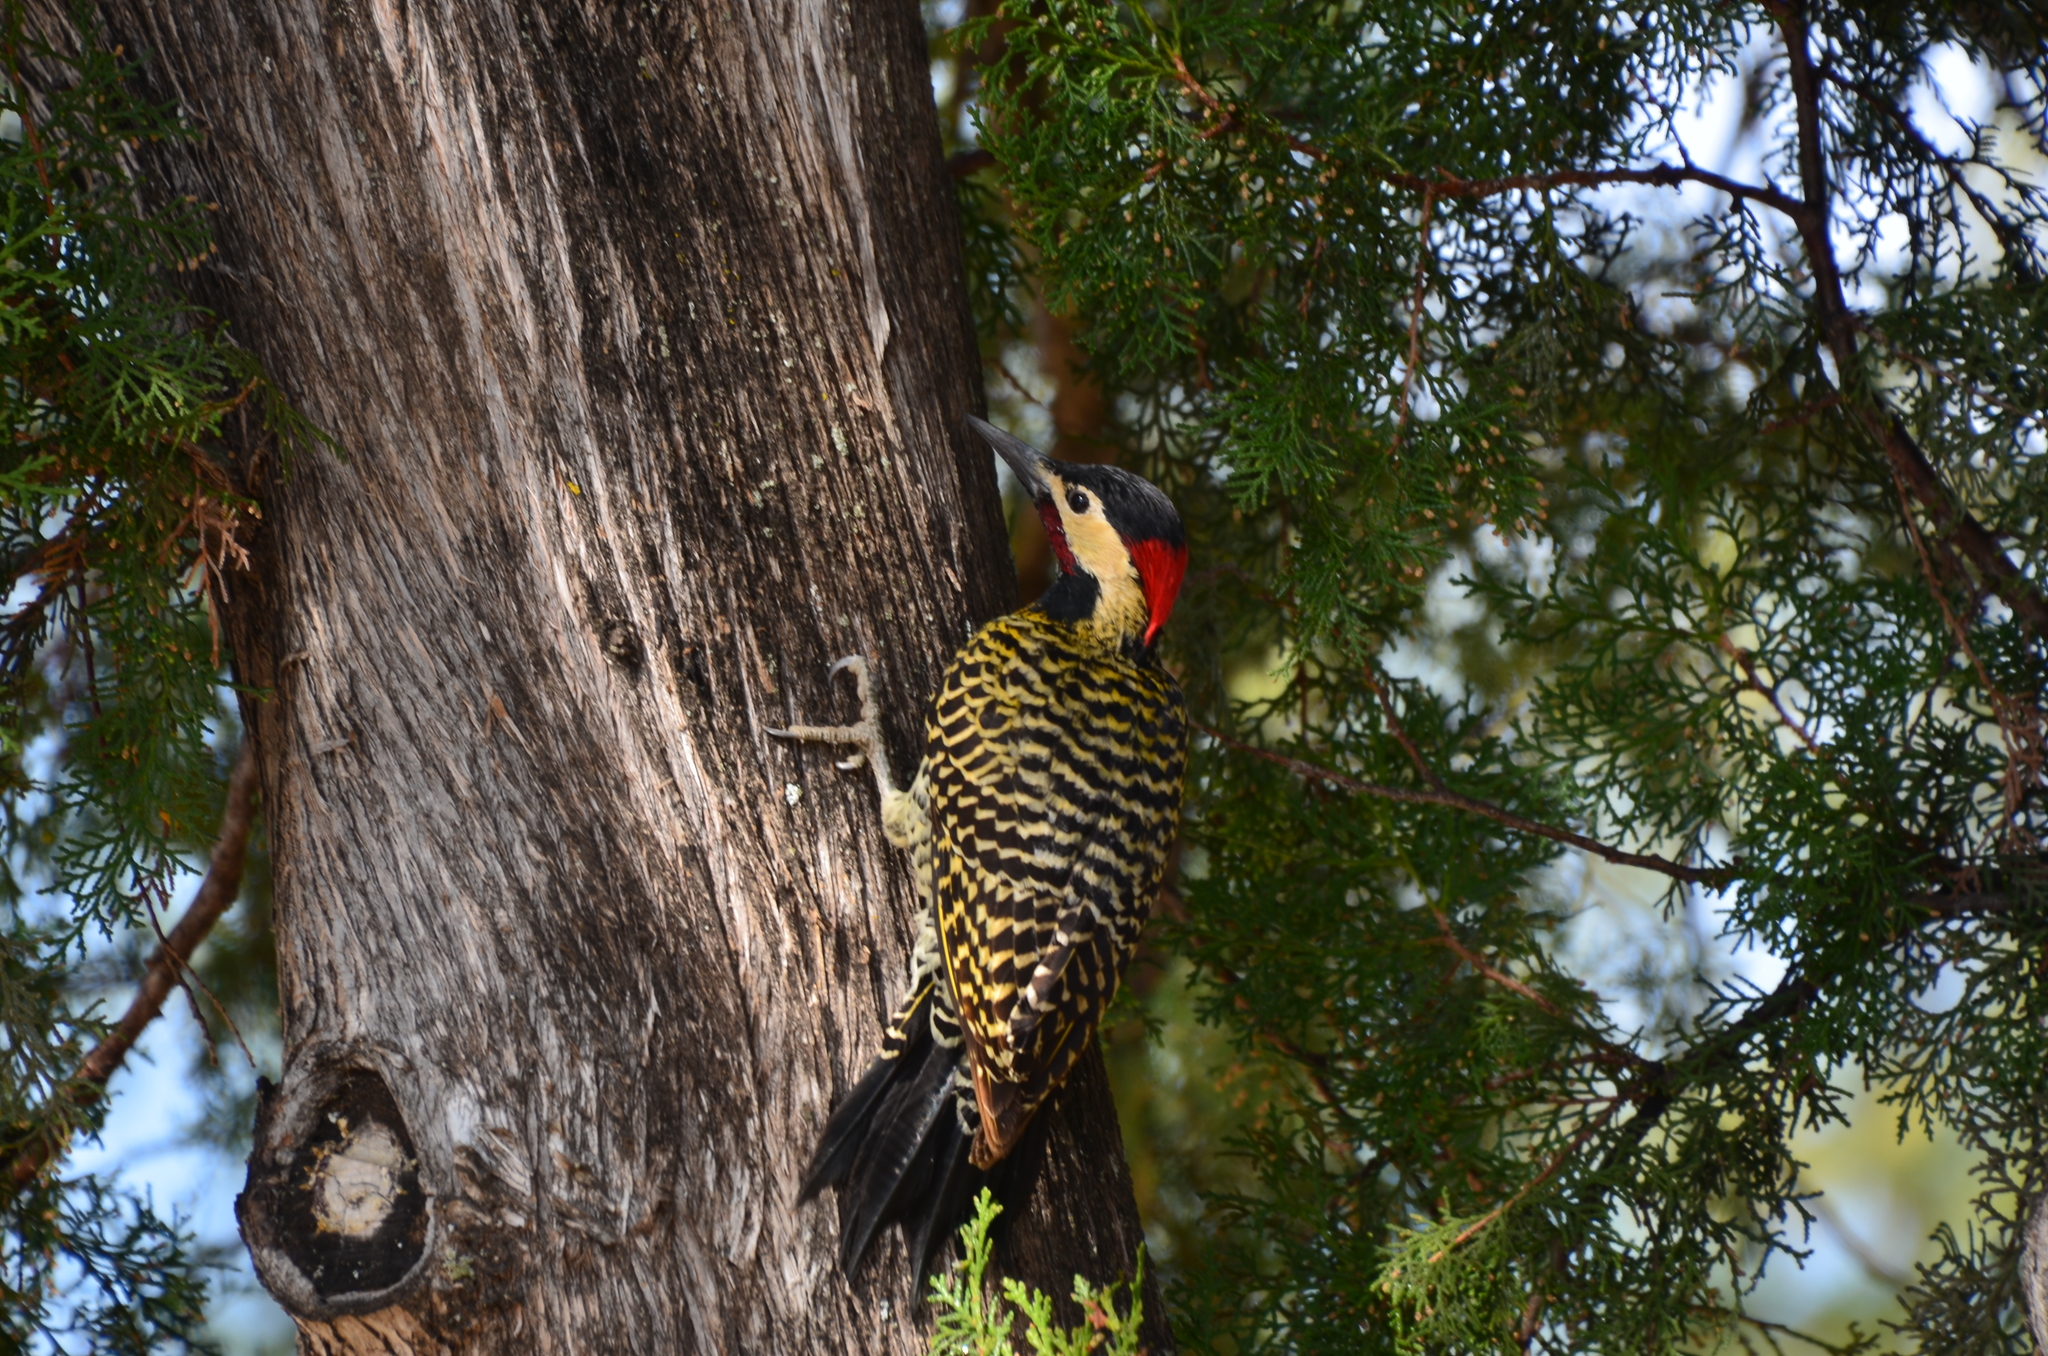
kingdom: Animalia
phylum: Chordata
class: Aves
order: Piciformes
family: Picidae
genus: Colaptes
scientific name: Colaptes melanochloros
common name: Green-barred woodpecker
